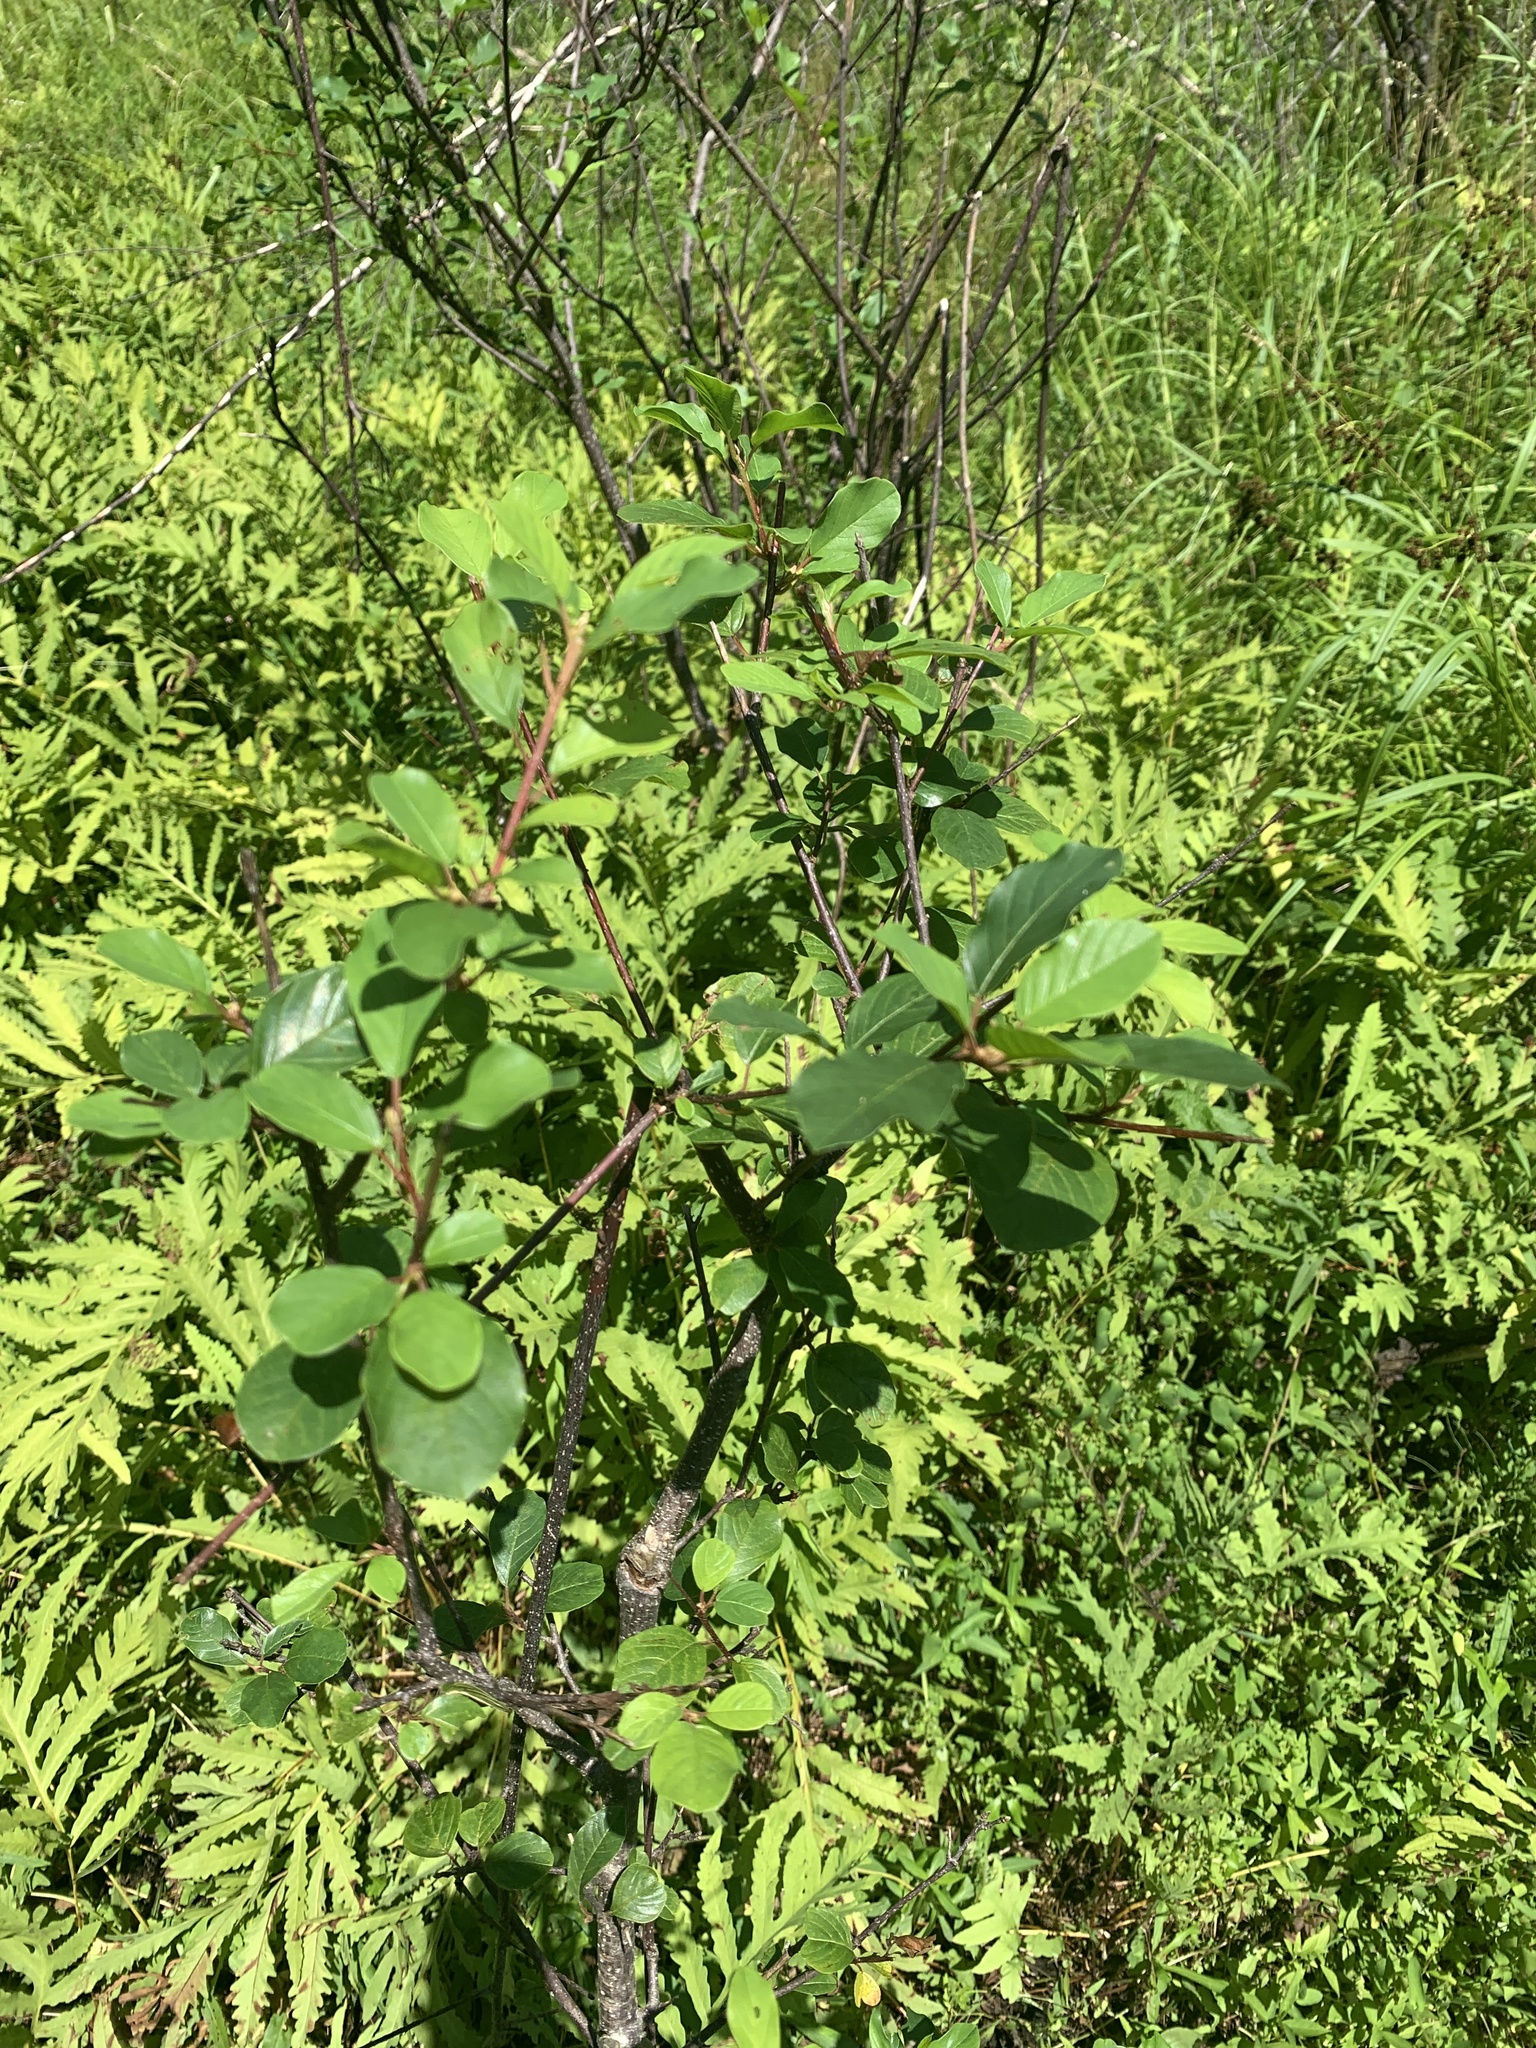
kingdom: Plantae
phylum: Tracheophyta
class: Magnoliopsida
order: Rosales
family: Rhamnaceae
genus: Frangula
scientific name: Frangula alnus
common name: Alder buckthorn
